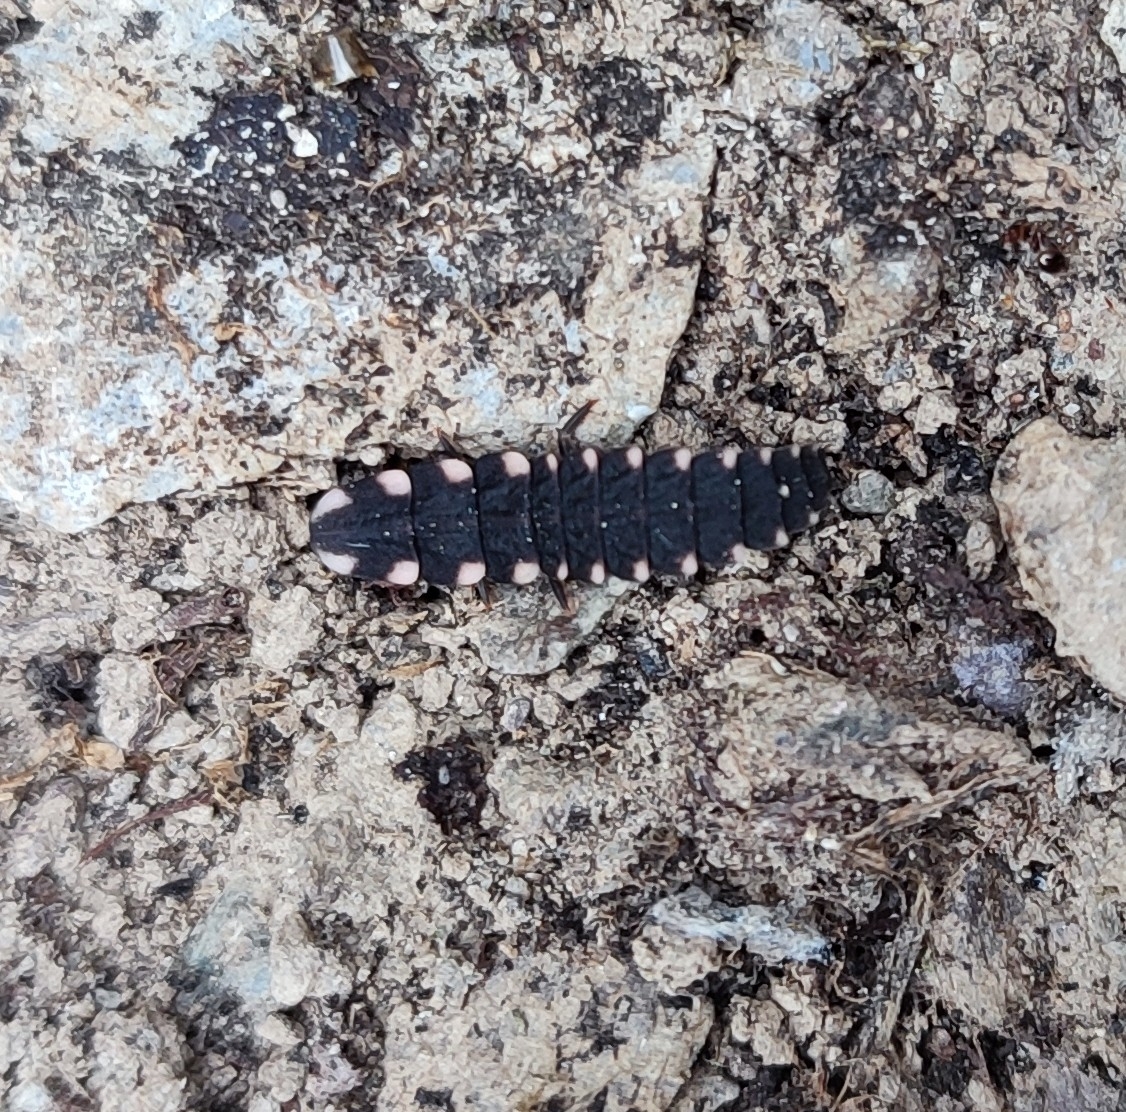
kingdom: Animalia
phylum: Arthropoda
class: Insecta
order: Coleoptera
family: Lampyridae
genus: Lampyris
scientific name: Lampyris raymondi
